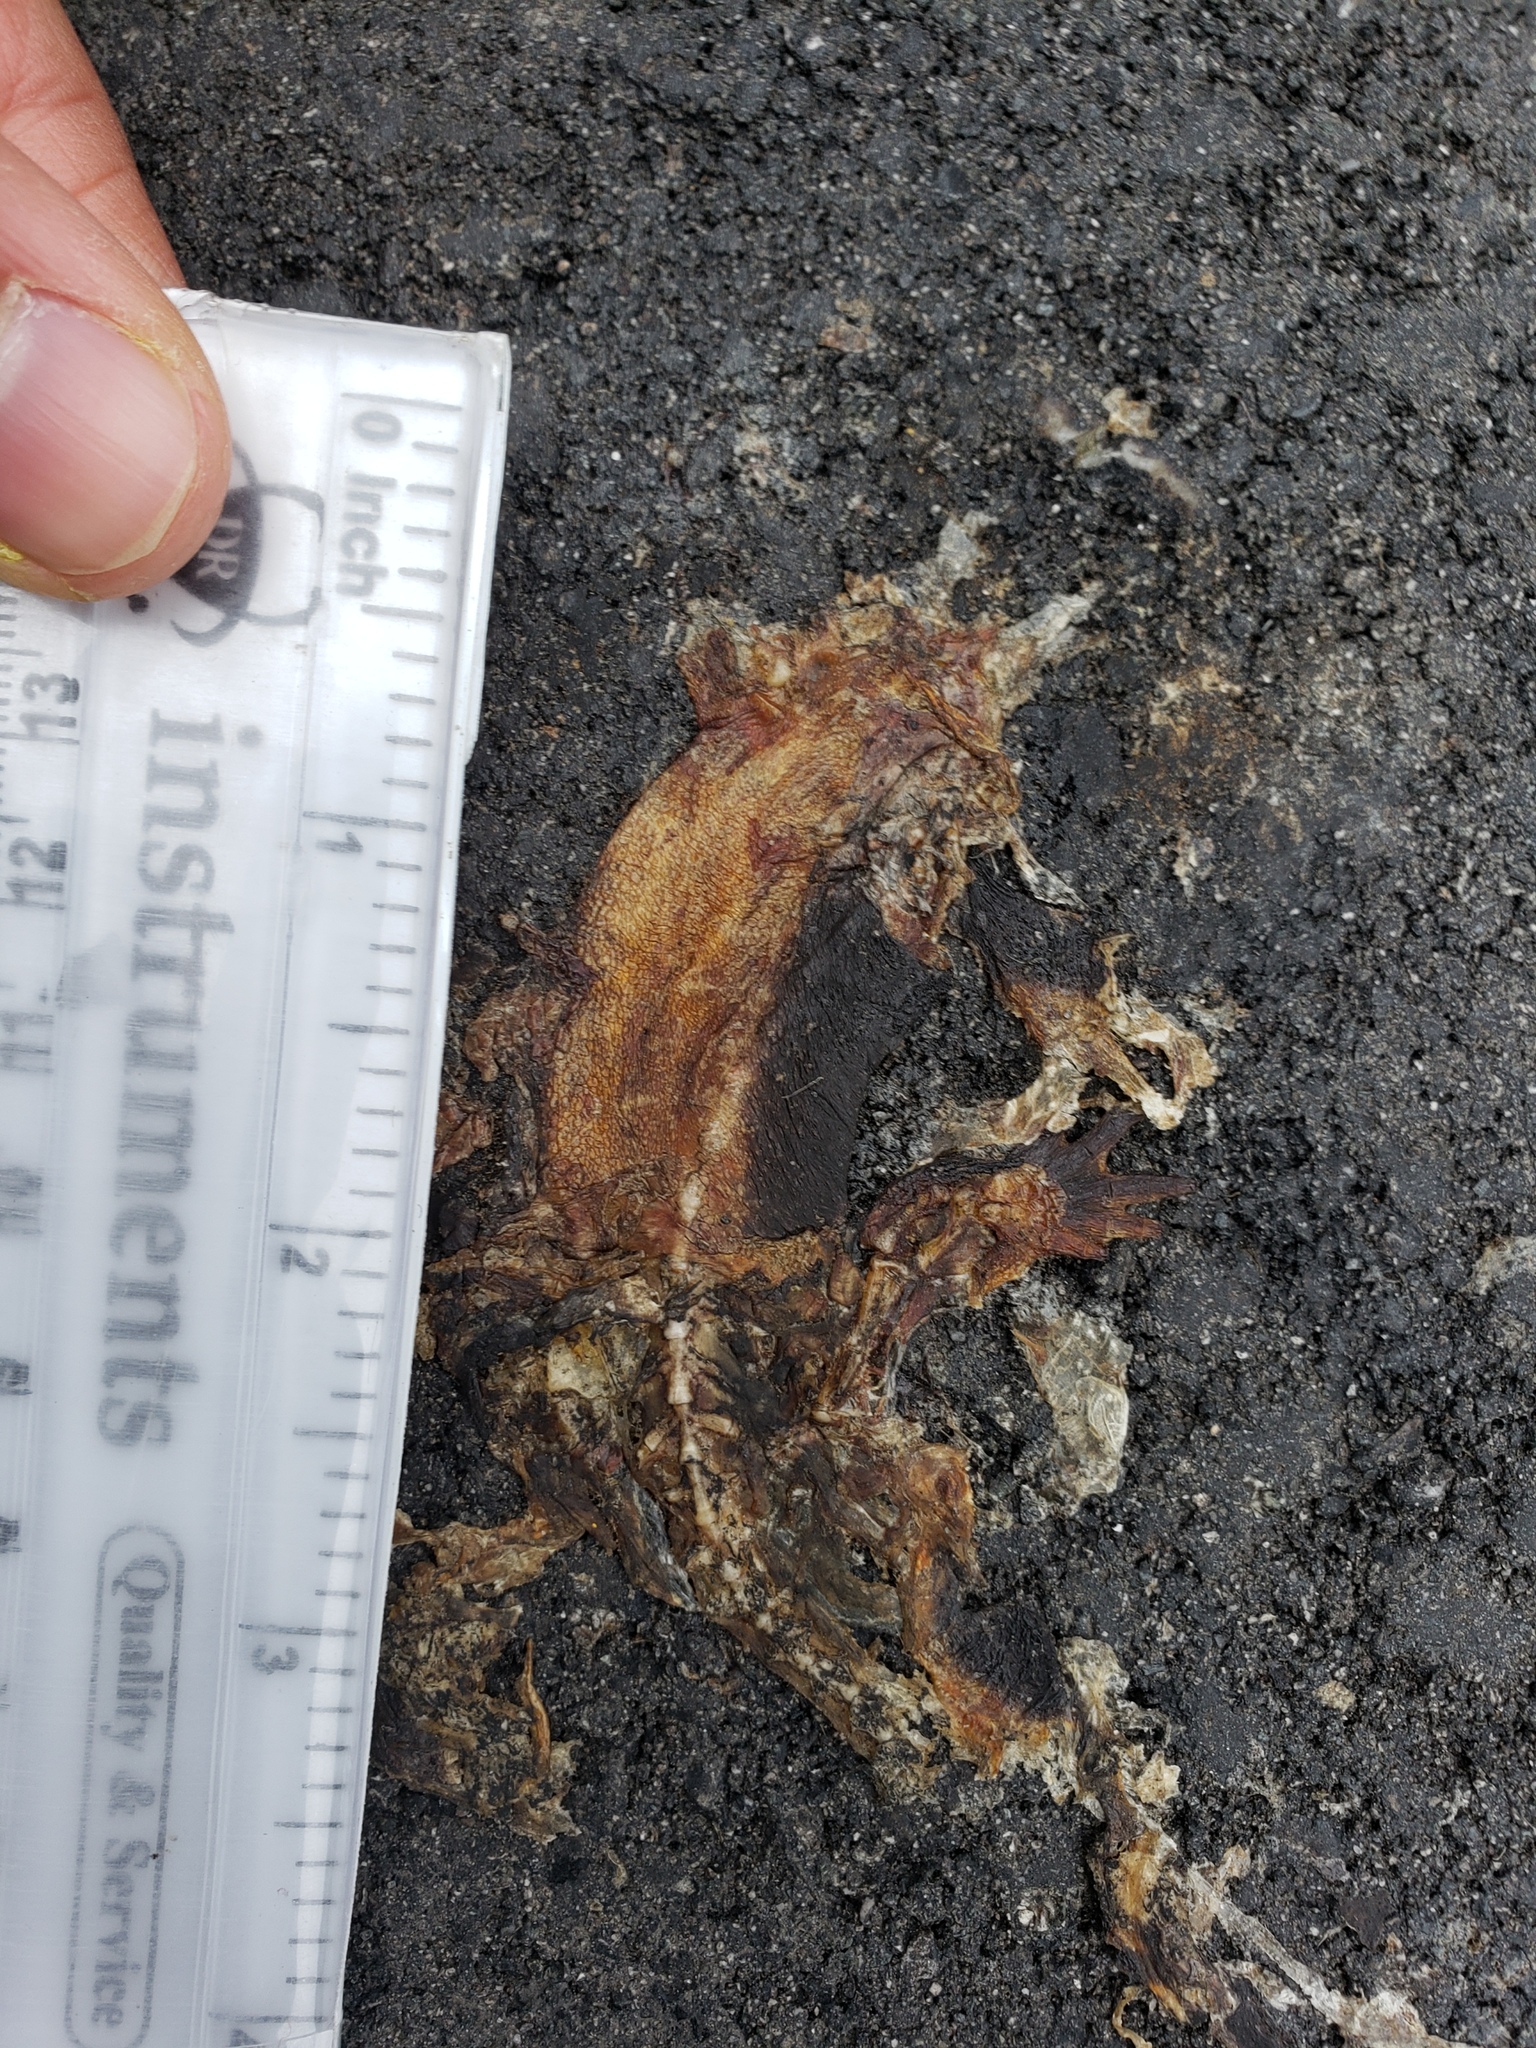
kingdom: Animalia
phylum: Chordata
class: Amphibia
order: Caudata
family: Salamandridae
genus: Taricha
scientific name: Taricha
